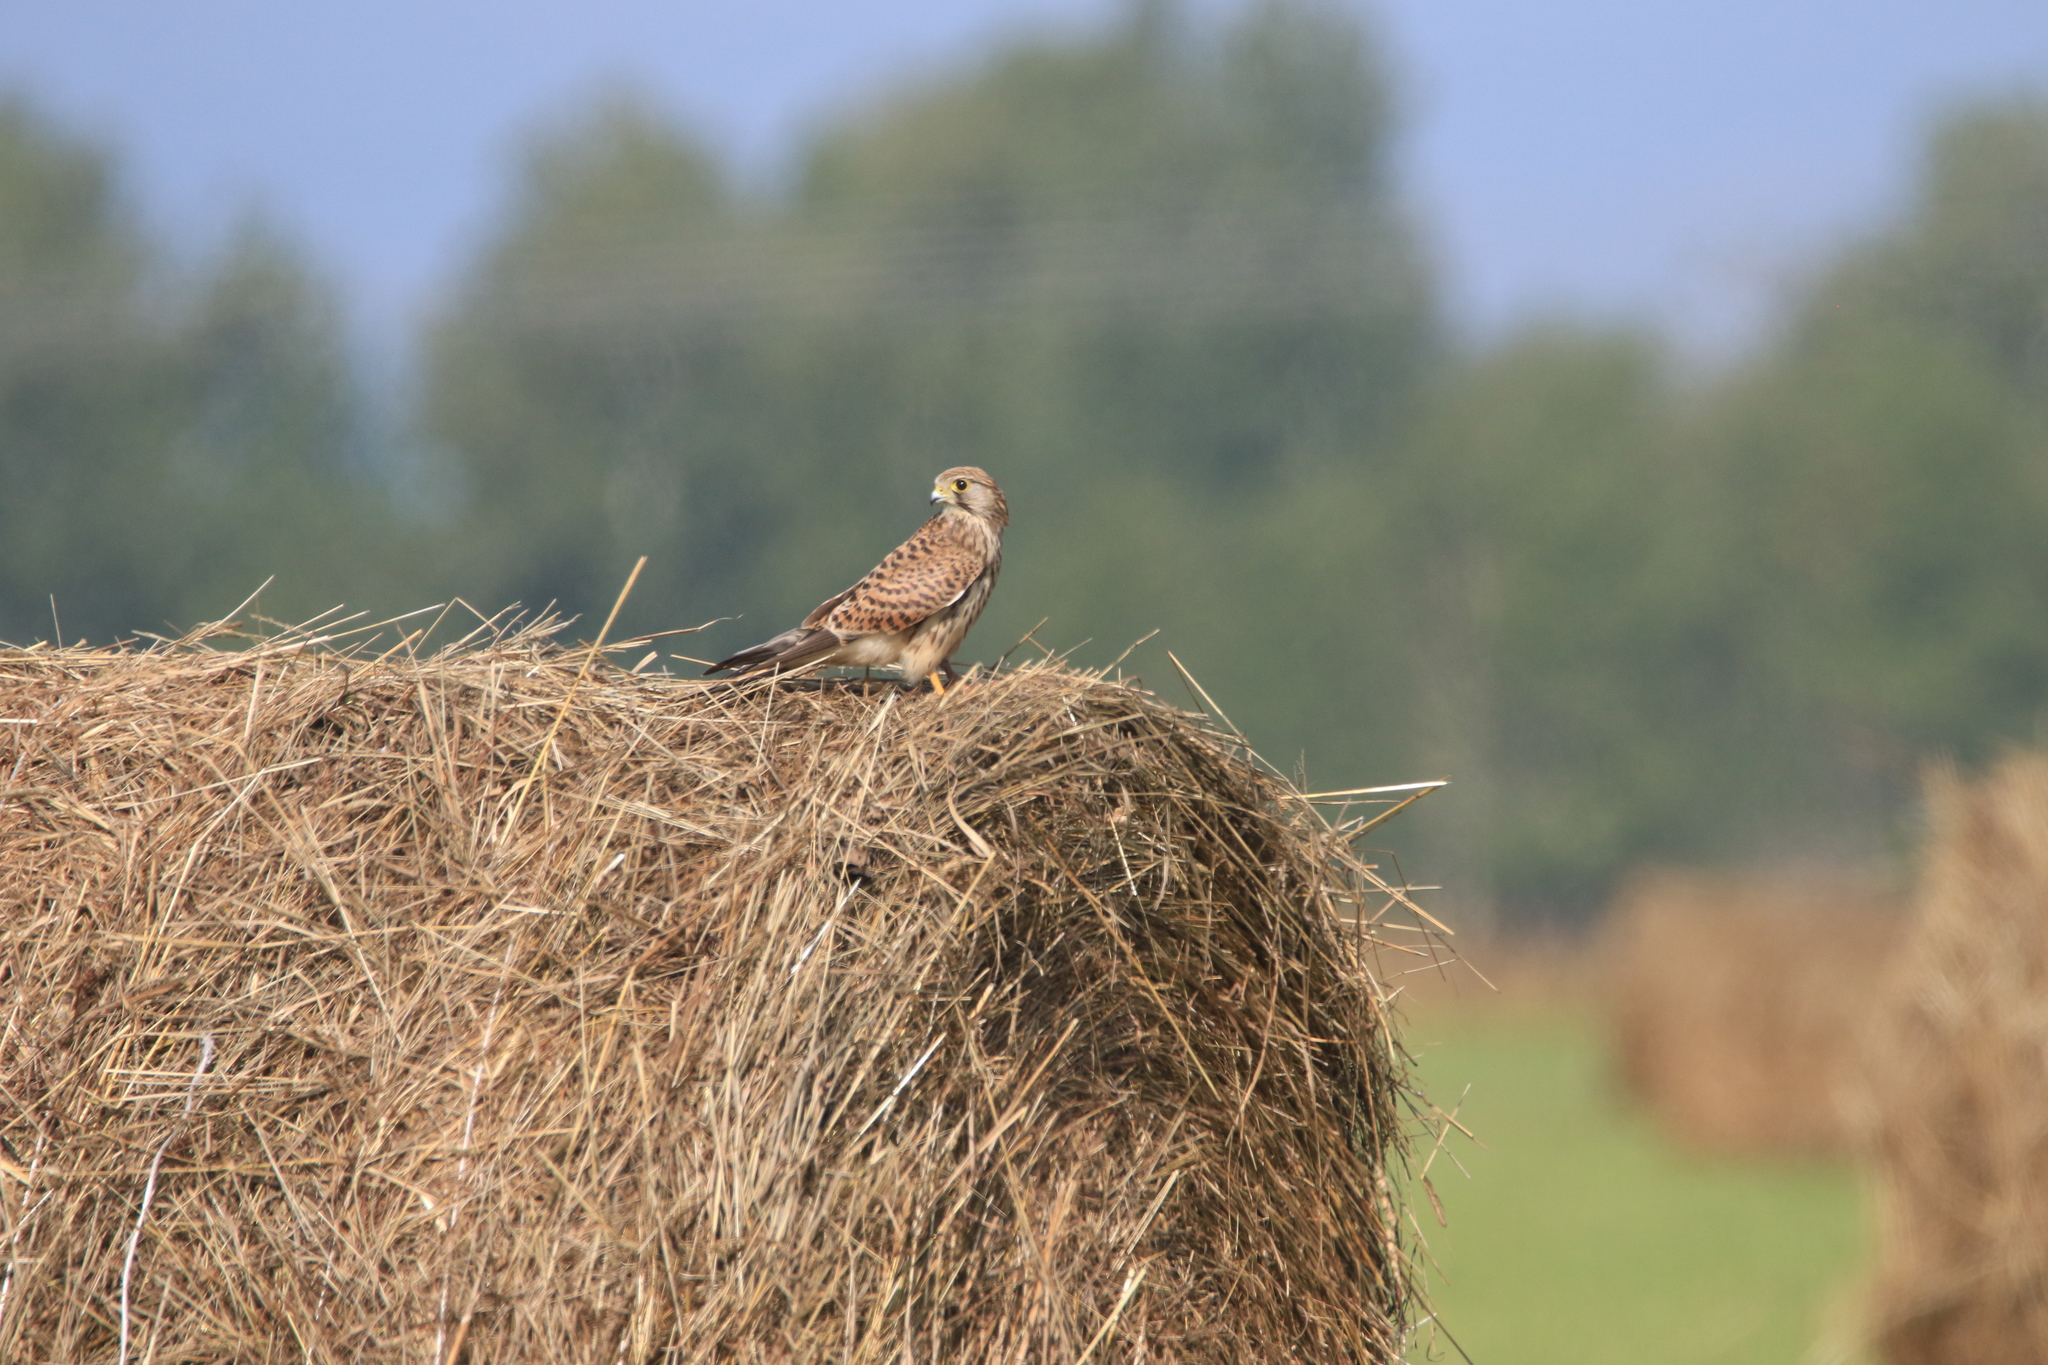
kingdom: Animalia
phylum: Chordata
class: Aves
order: Falconiformes
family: Falconidae
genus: Falco
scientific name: Falco tinnunculus
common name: Common kestrel
